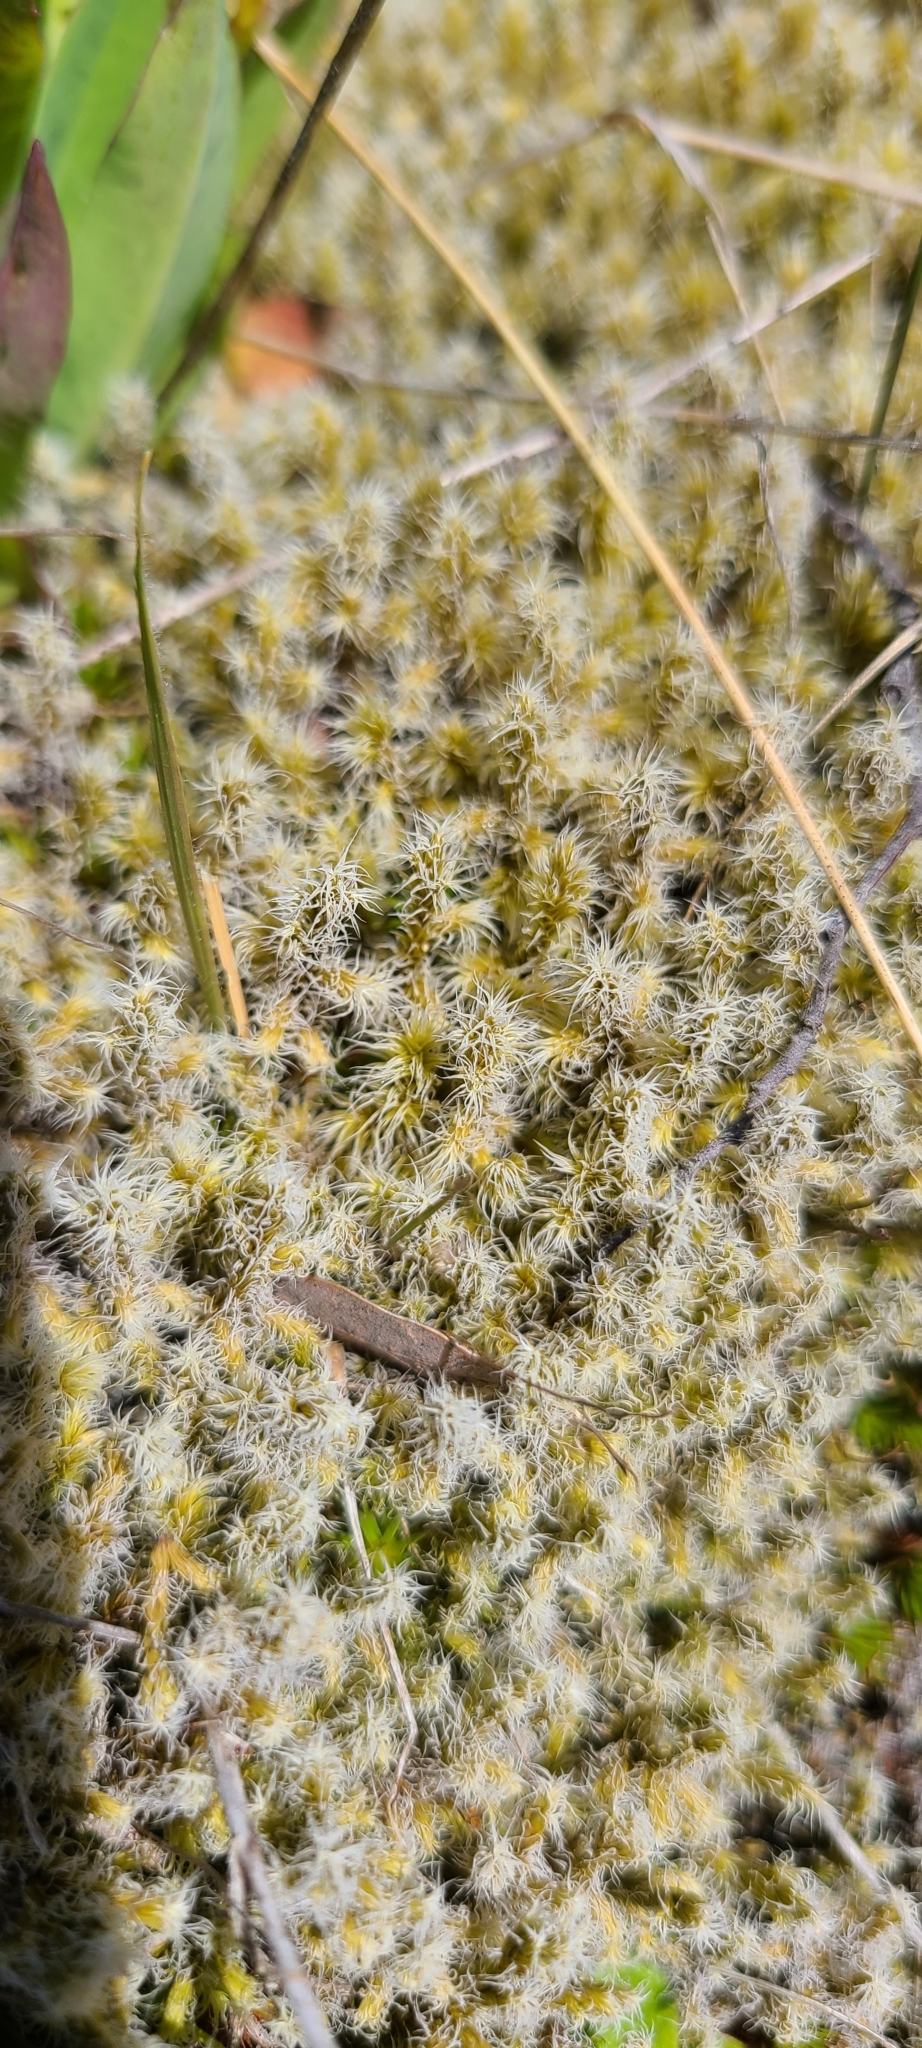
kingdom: Plantae
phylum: Bryophyta
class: Bryopsida
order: Grimmiales
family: Grimmiaceae
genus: Racomitrium
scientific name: Racomitrium lanuginosum
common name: Hoary rock moss
